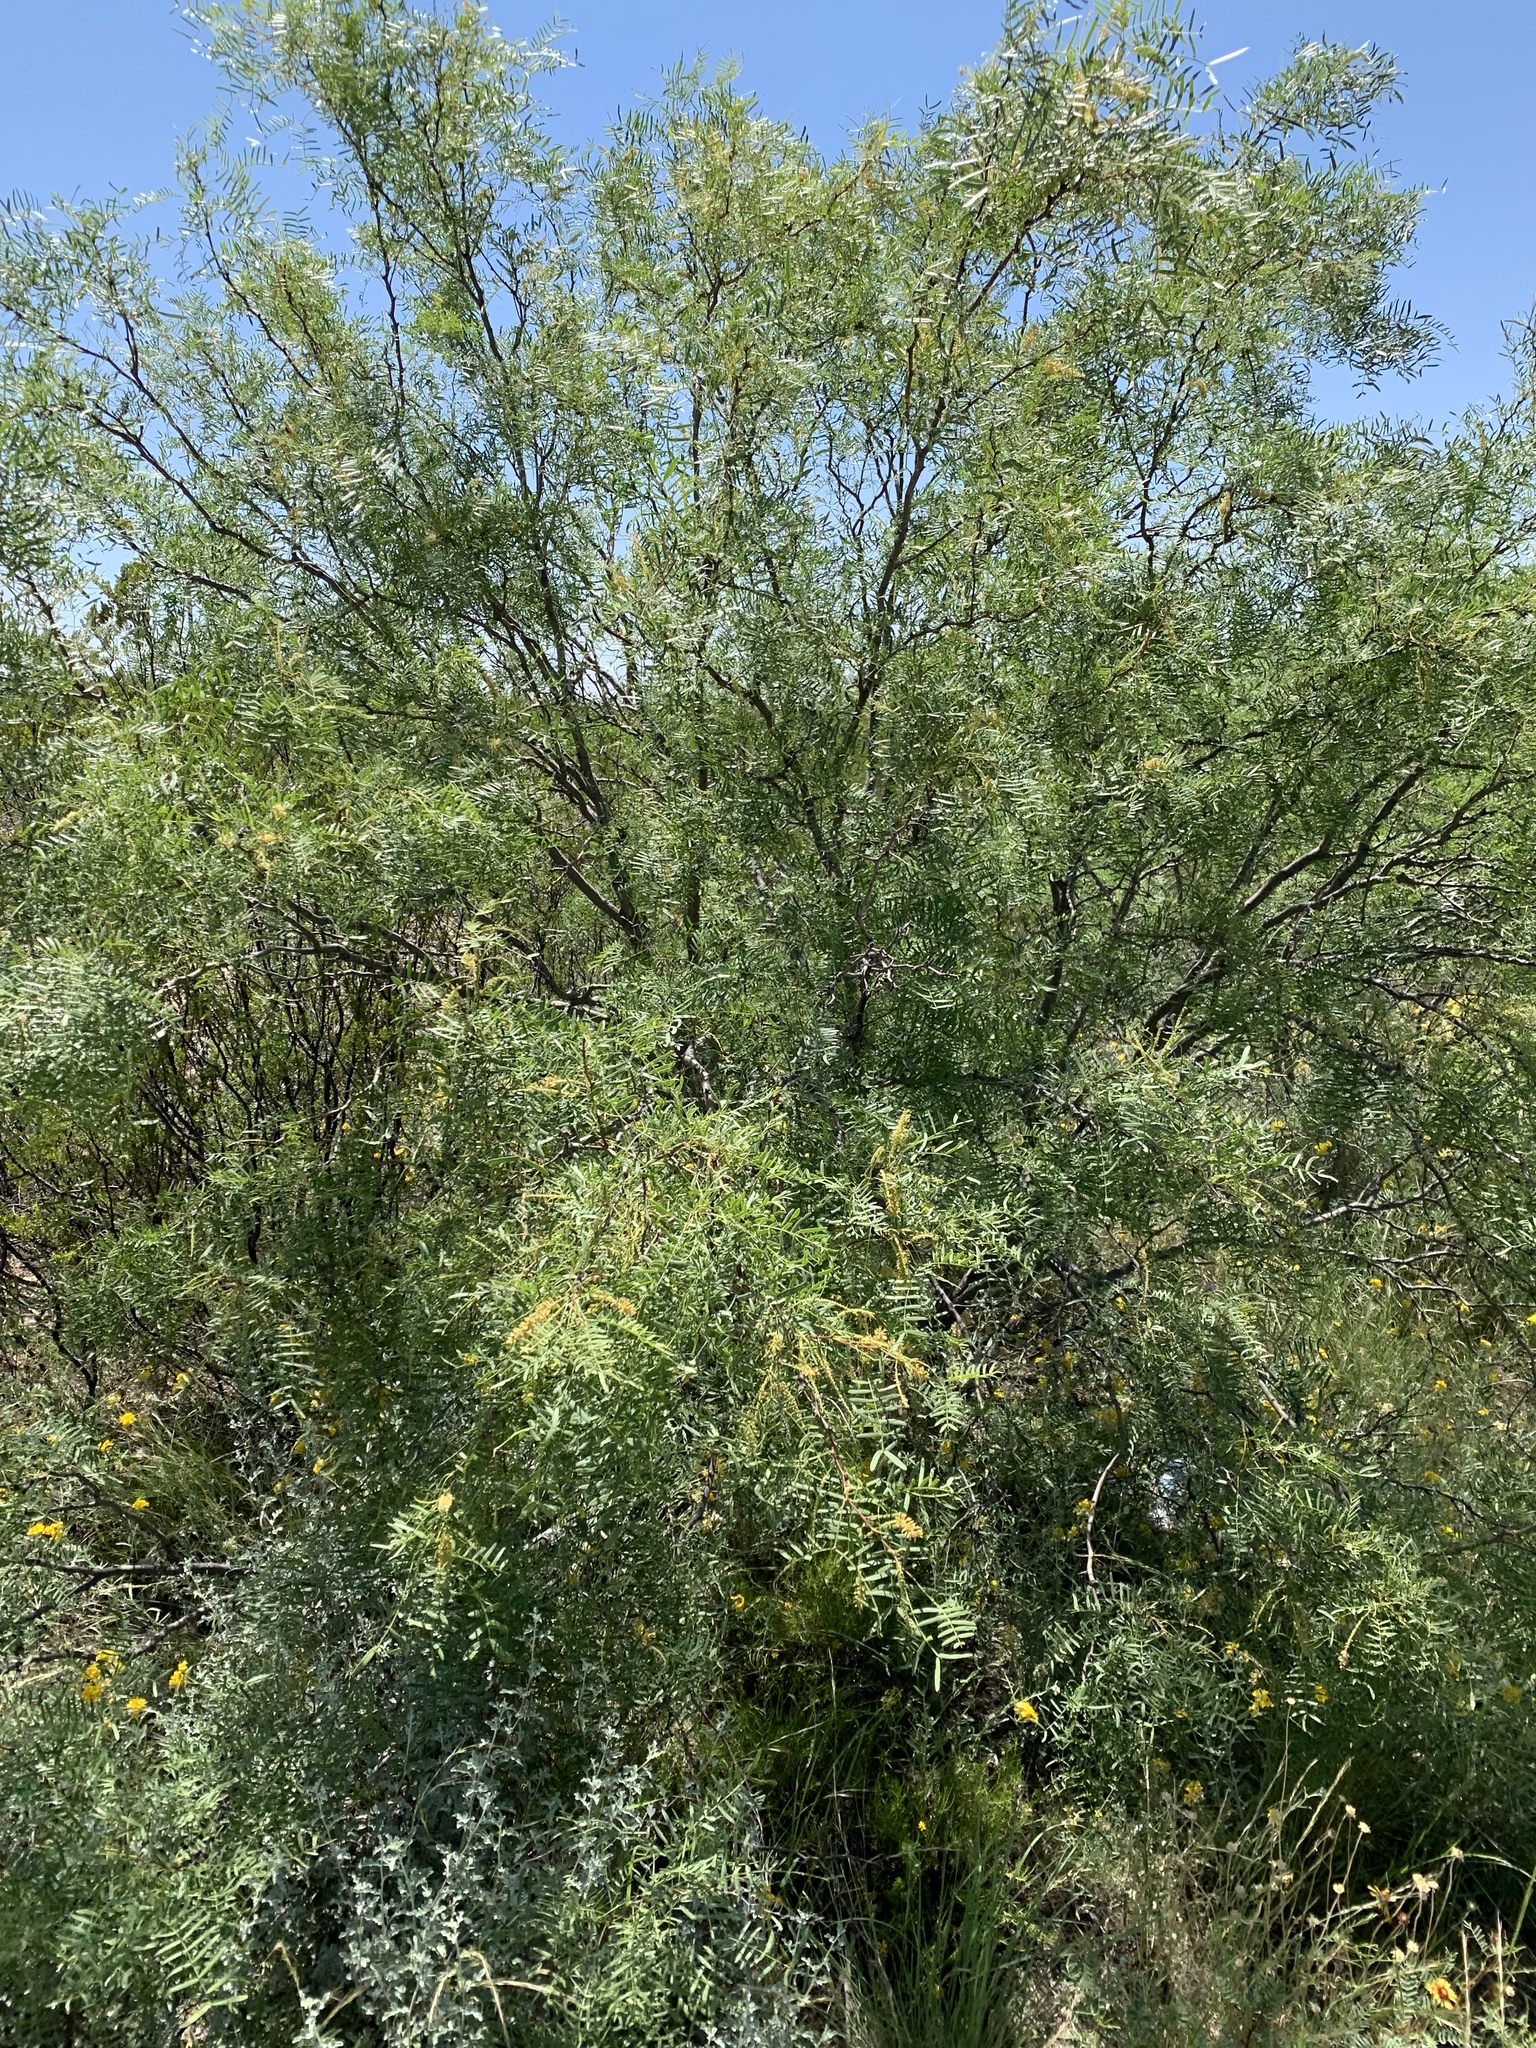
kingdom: Plantae
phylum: Tracheophyta
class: Magnoliopsida
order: Fabales
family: Fabaceae
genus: Prosopis
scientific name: Prosopis glandulosa
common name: Honey mesquite
